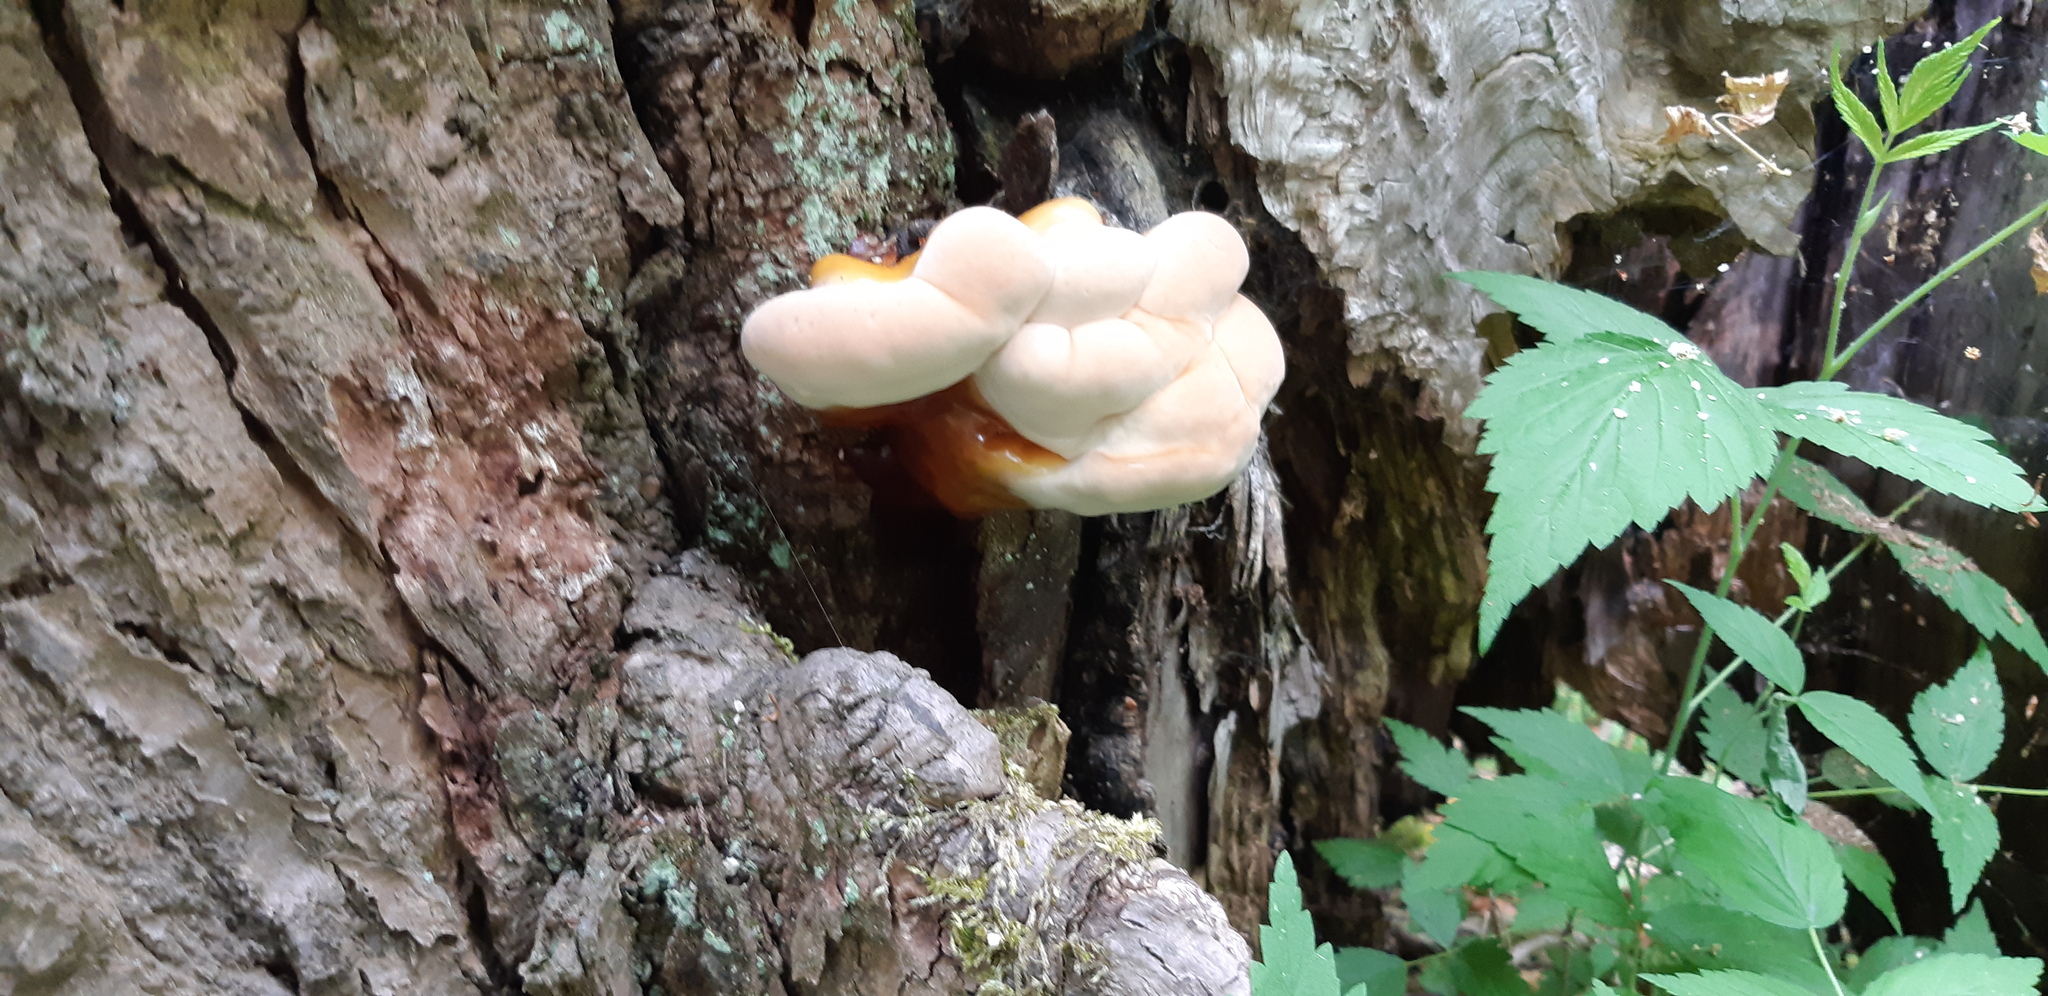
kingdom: Fungi
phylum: Basidiomycota
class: Agaricomycetes
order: Polyporales
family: Polyporaceae
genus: Ganoderma
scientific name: Ganoderma tsugae
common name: Hemlock varnish shelf
